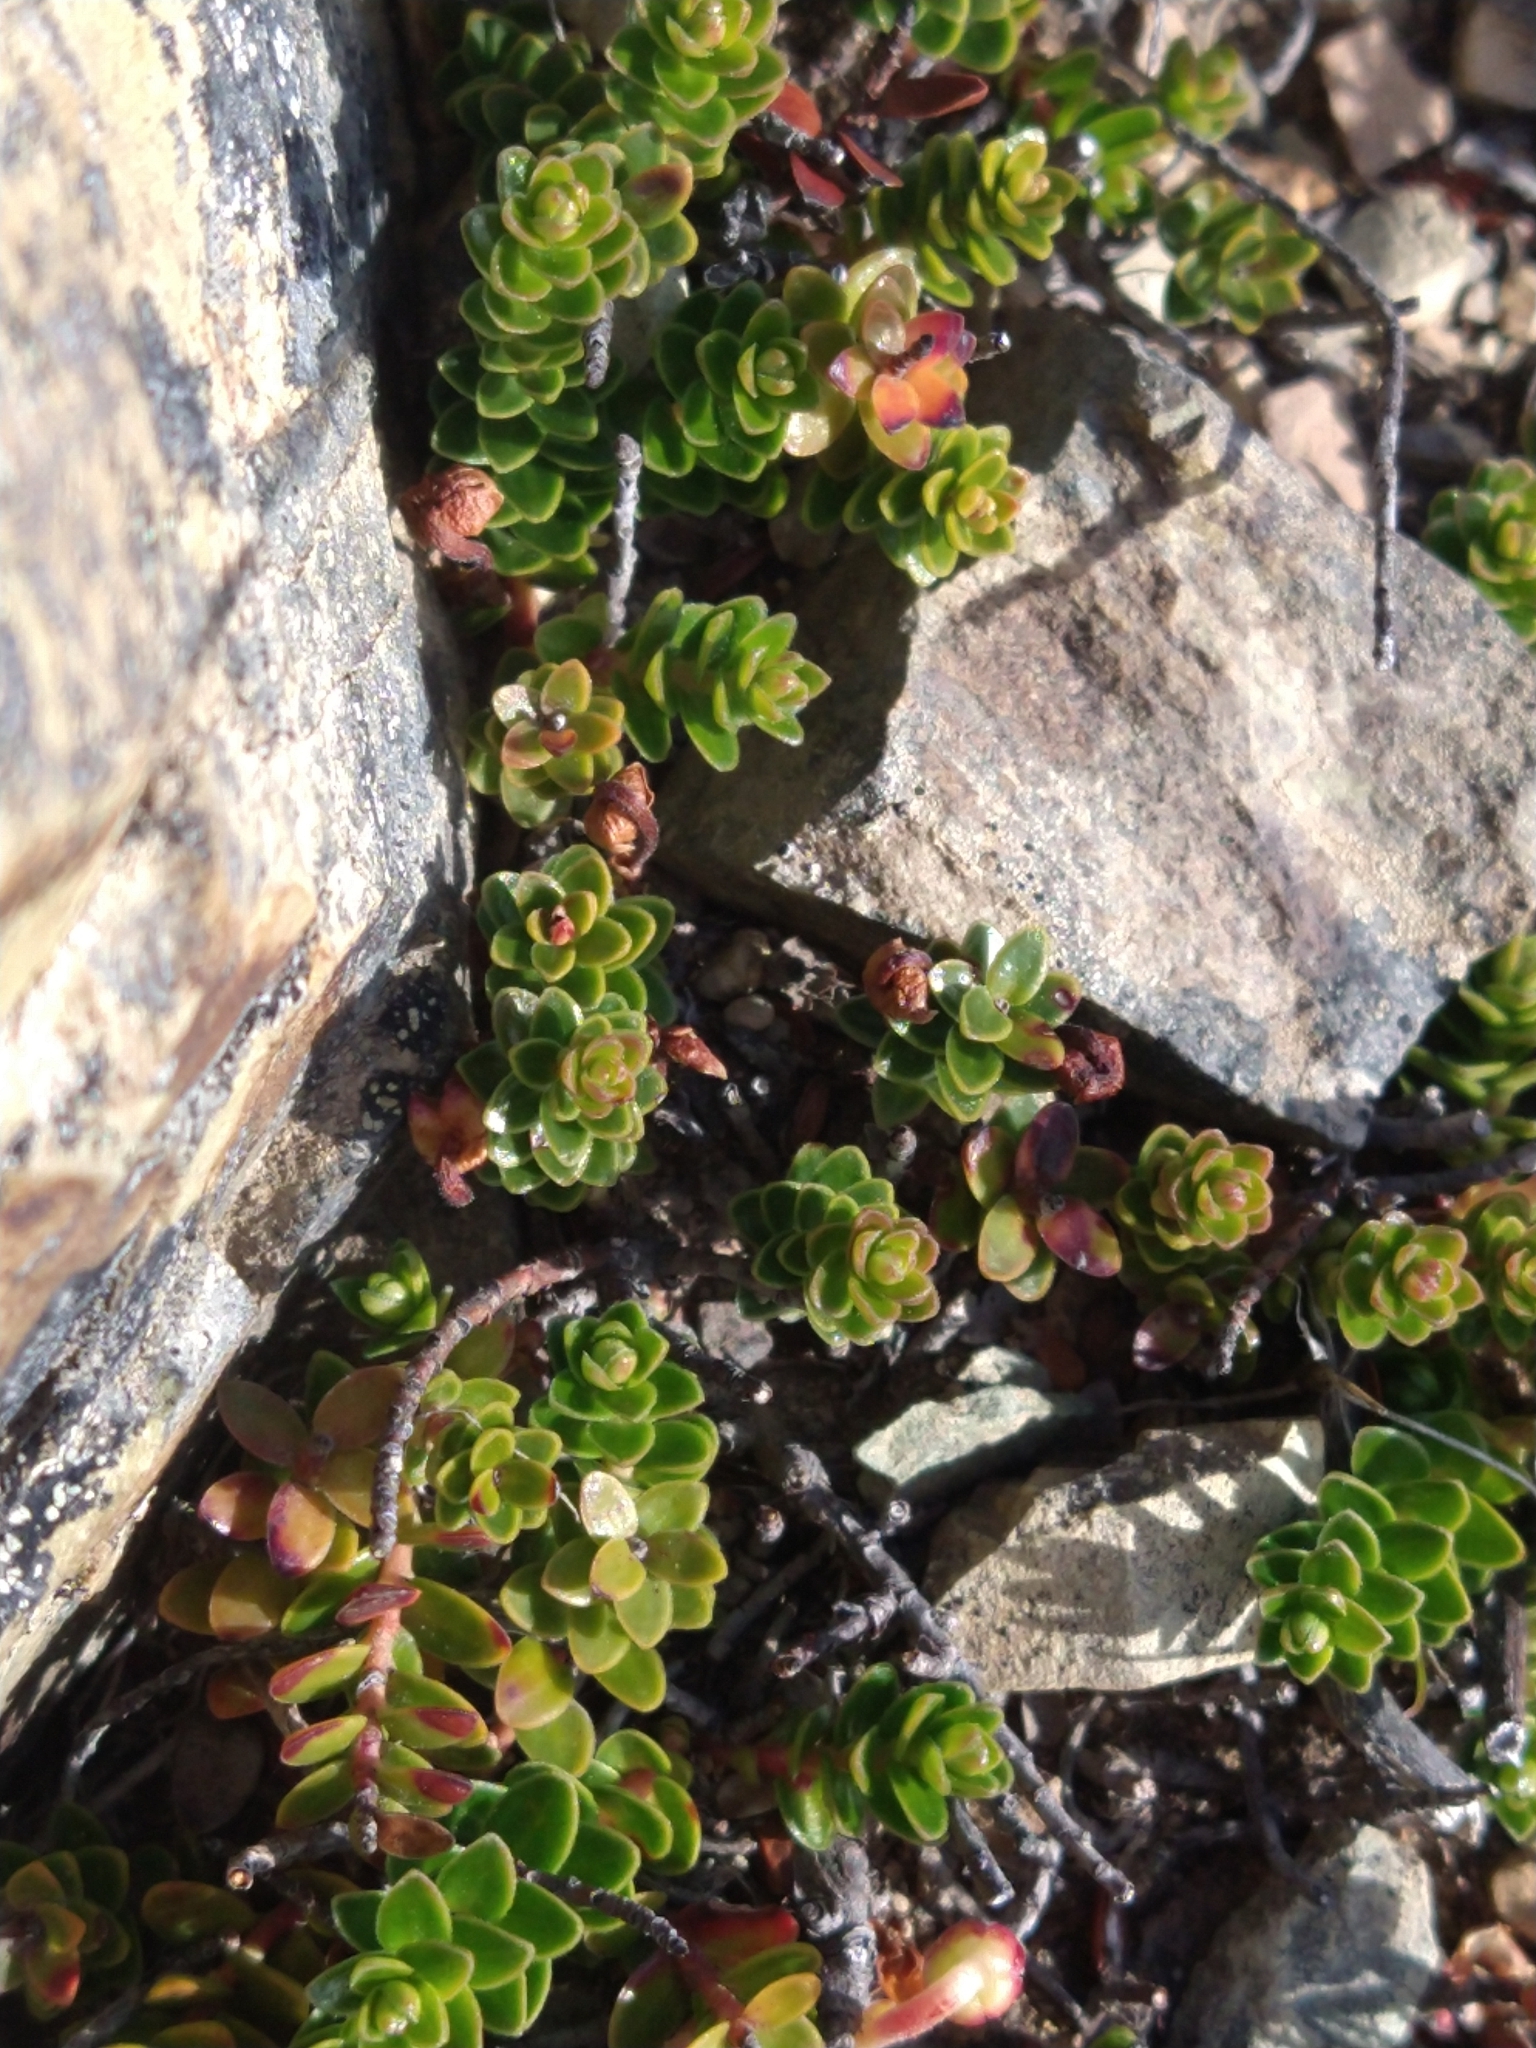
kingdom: Plantae
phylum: Tracheophyta
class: Magnoliopsida
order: Ericales
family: Ericaceae
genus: Gaultheria
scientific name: Gaultheria pumila
